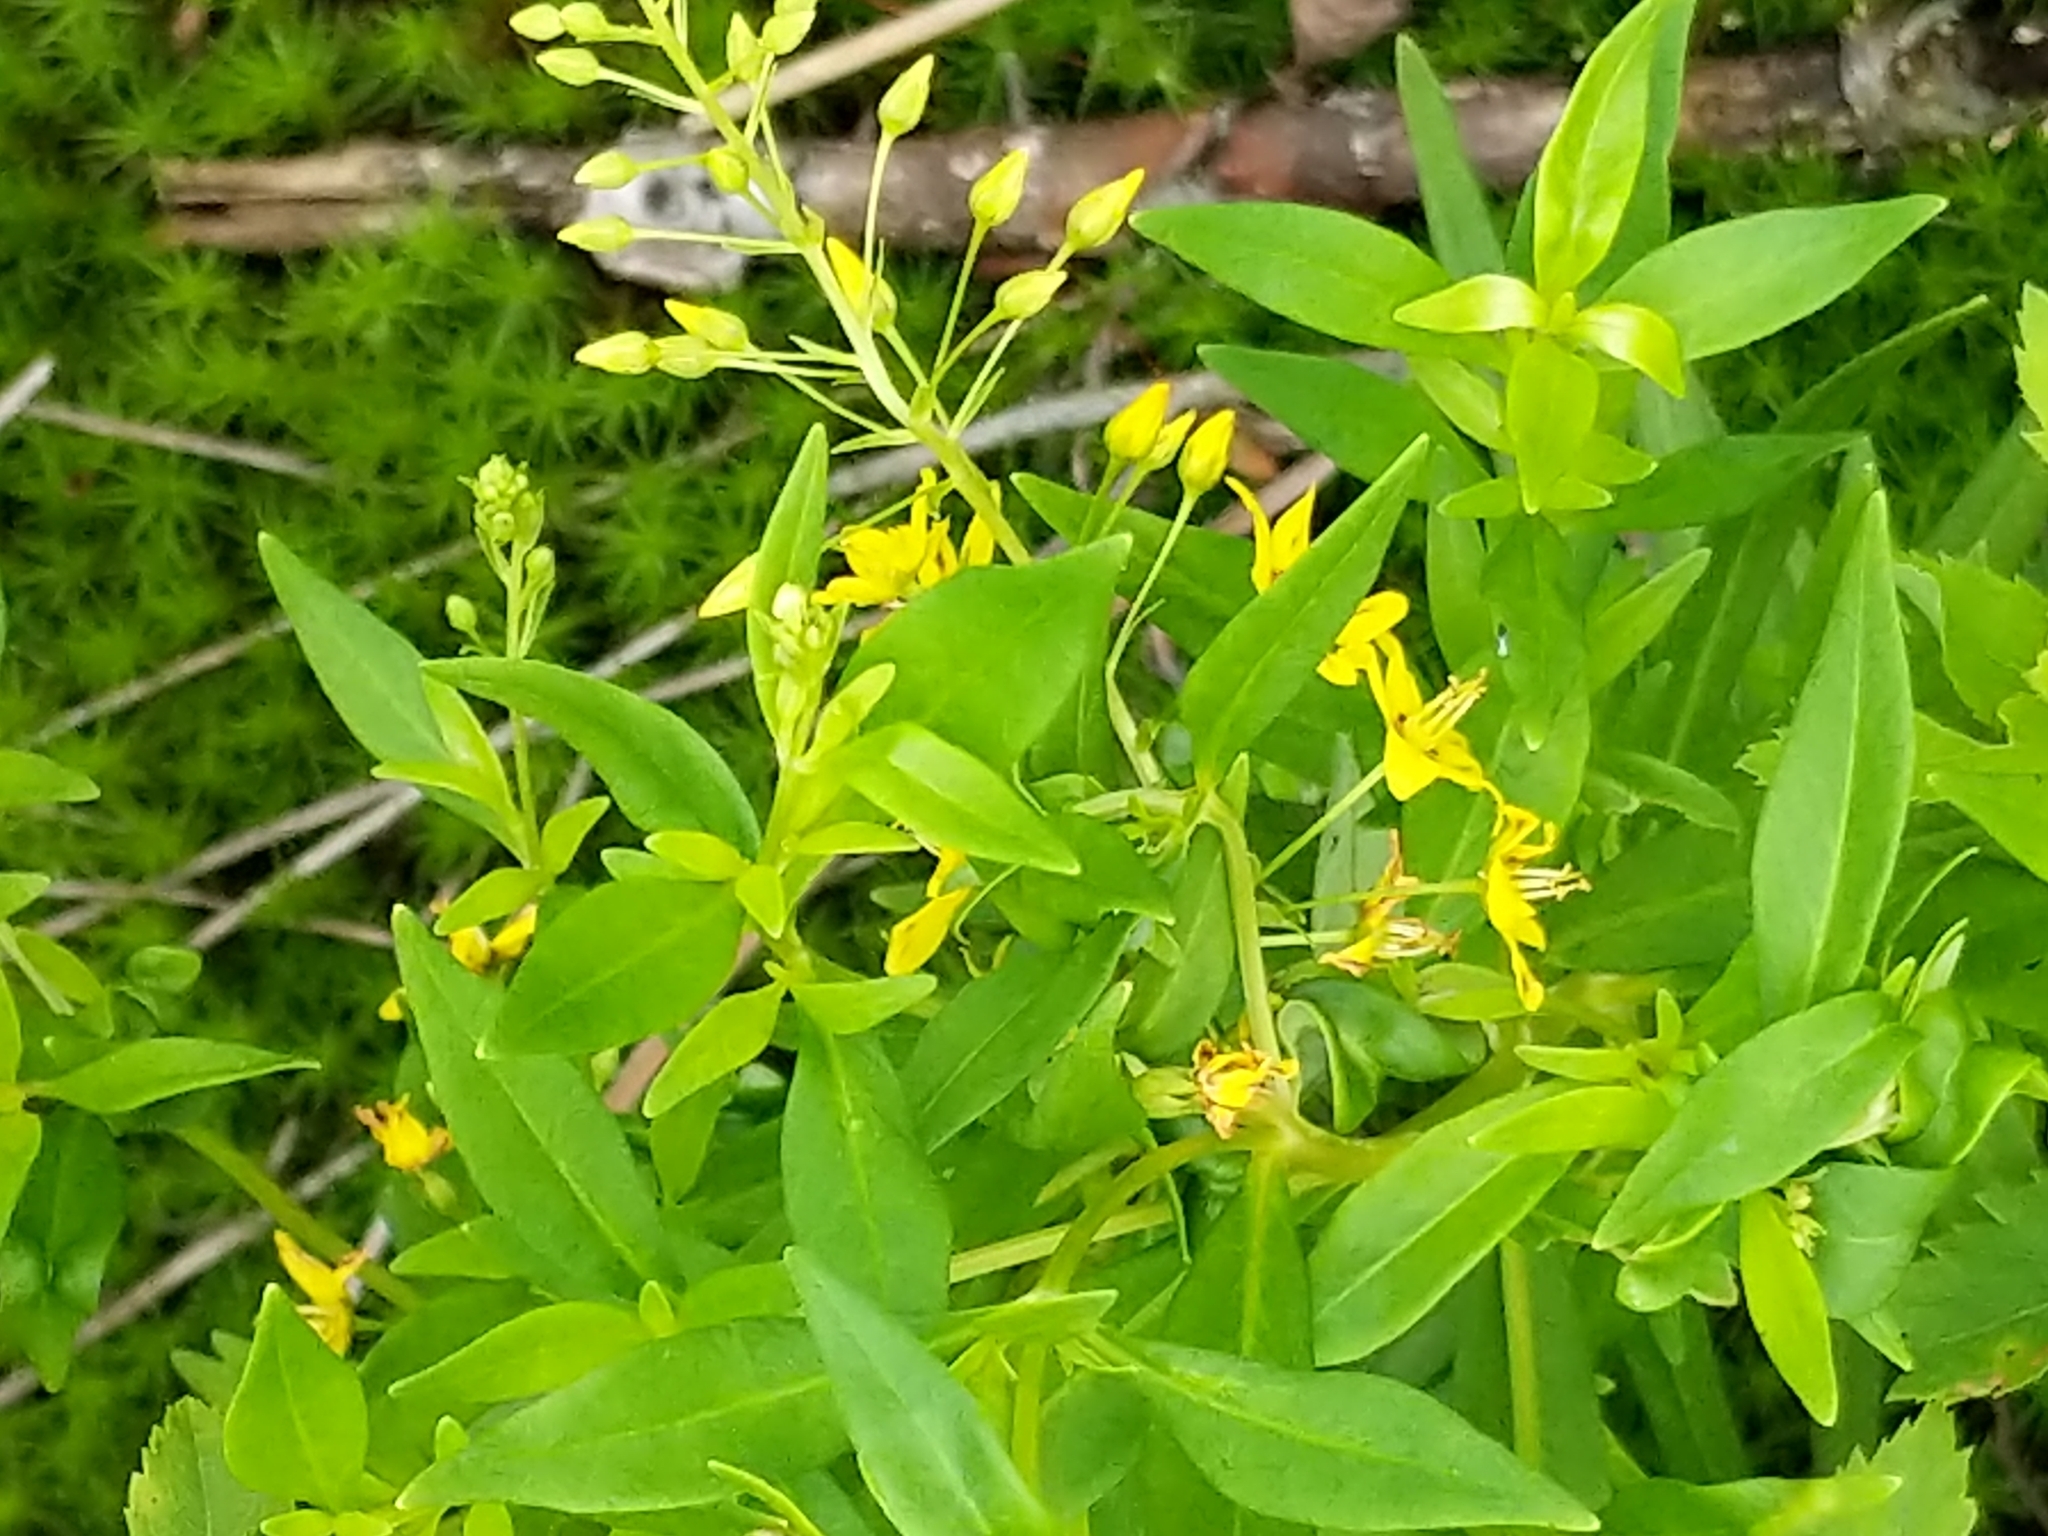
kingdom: Plantae
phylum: Tracheophyta
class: Magnoliopsida
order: Ericales
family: Primulaceae
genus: Lysimachia
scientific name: Lysimachia terrestris
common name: Lake loosestrife
